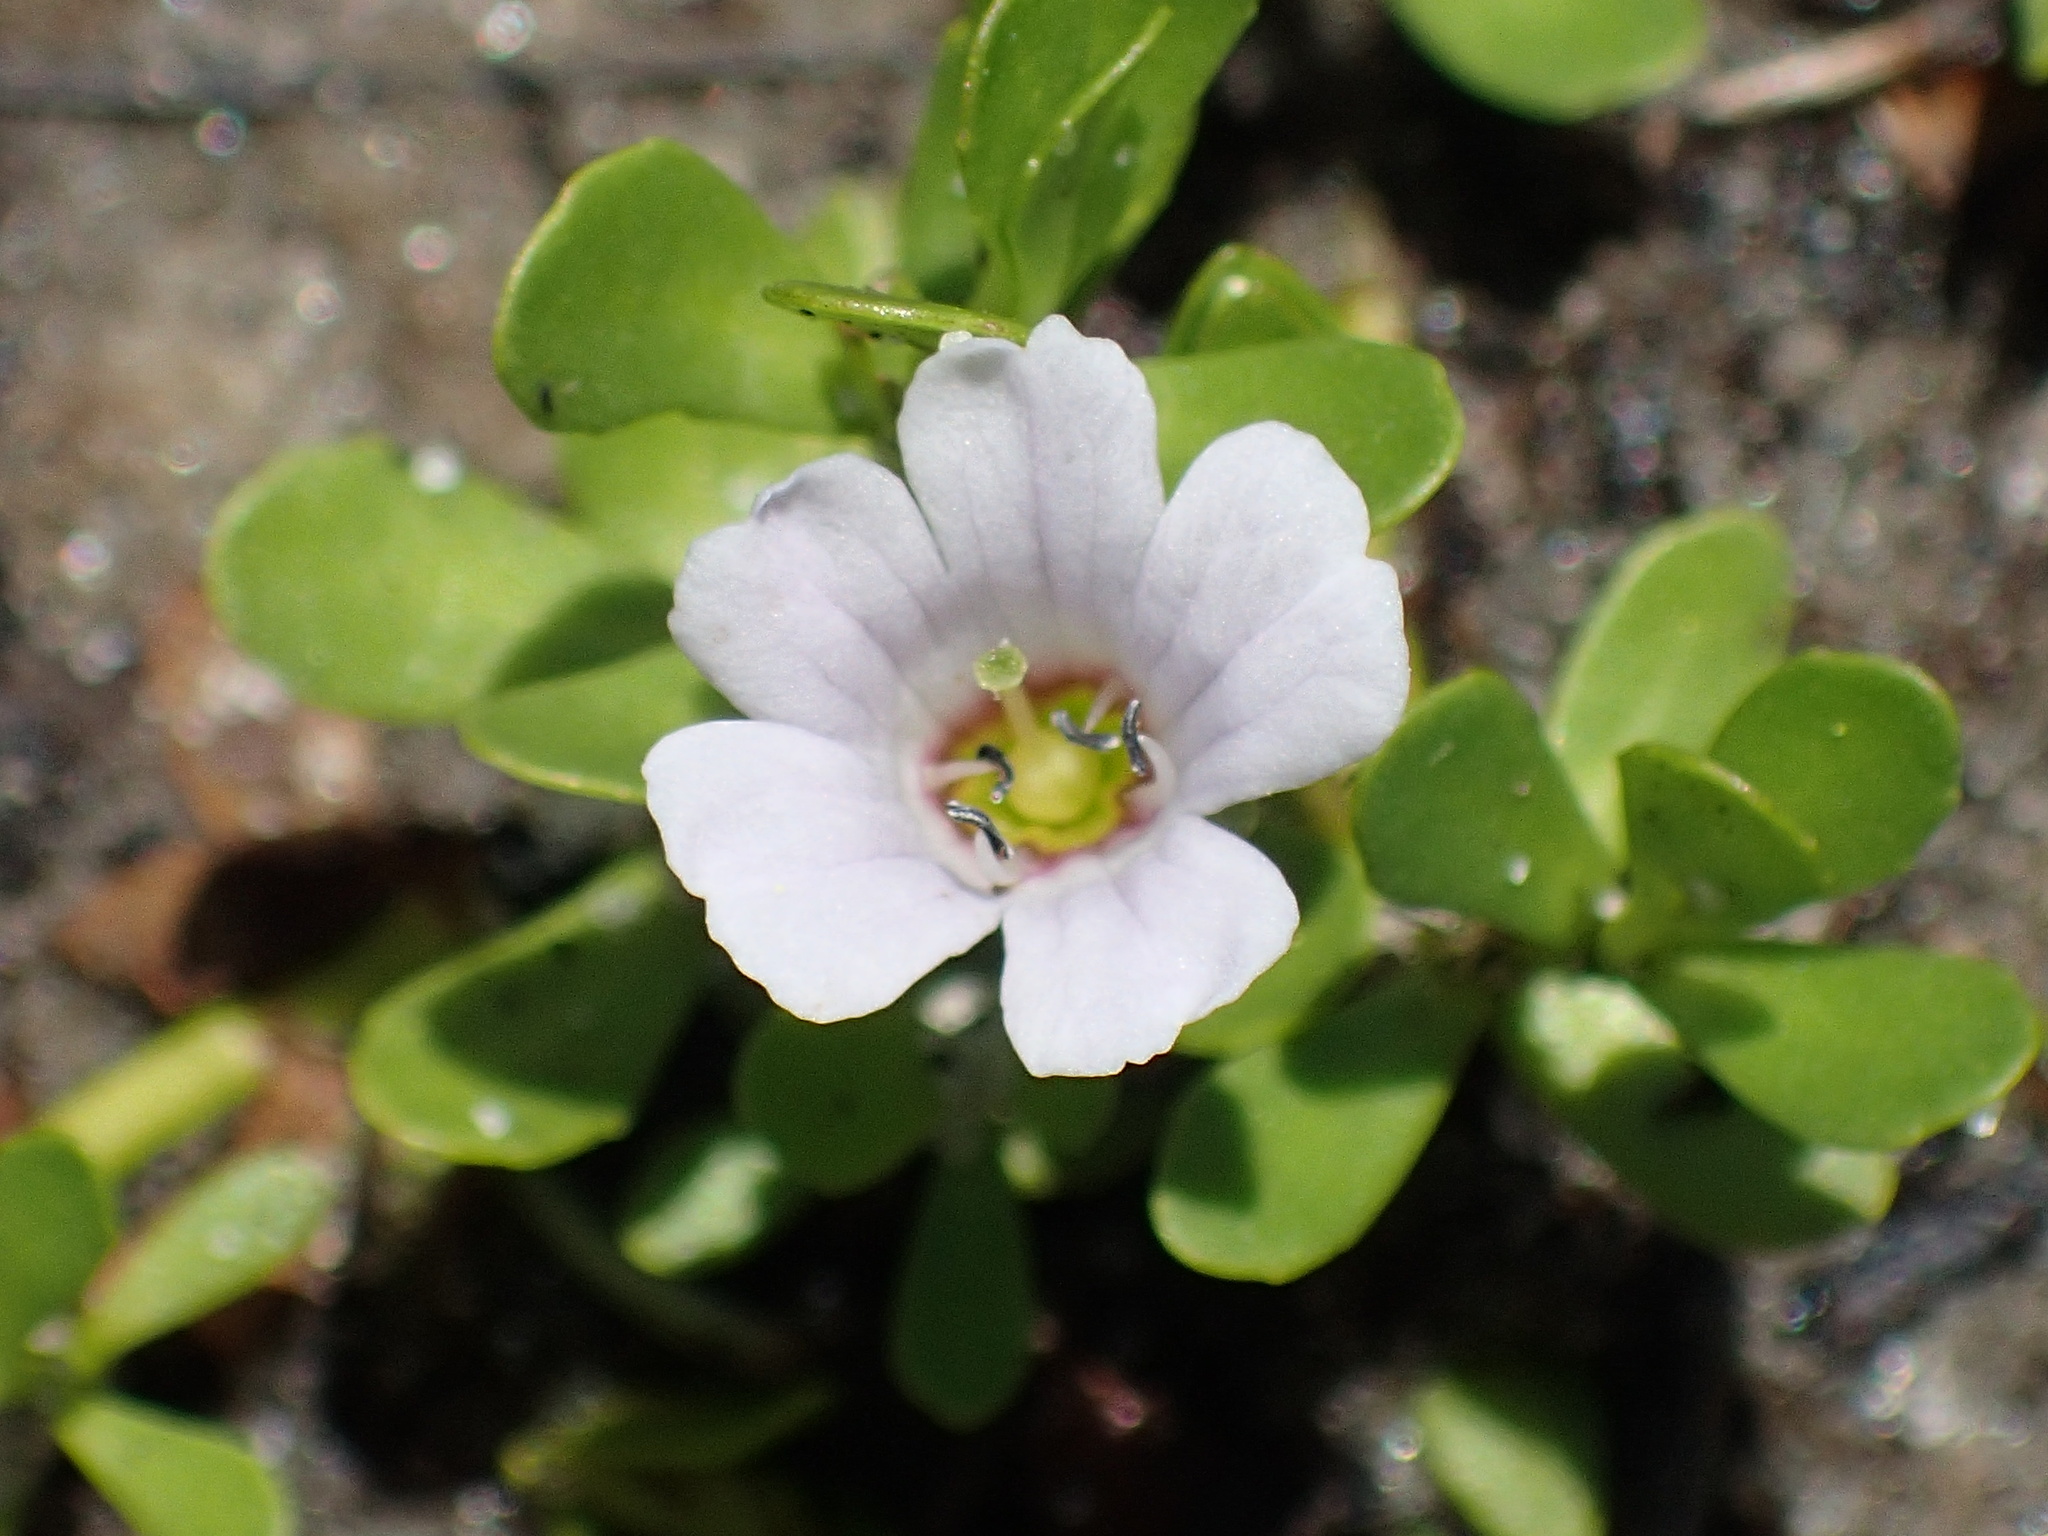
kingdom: Plantae
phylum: Tracheophyta
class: Magnoliopsida
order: Lamiales
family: Plantaginaceae
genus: Bacopa
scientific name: Bacopa monnieri
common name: Indian-pennywort
